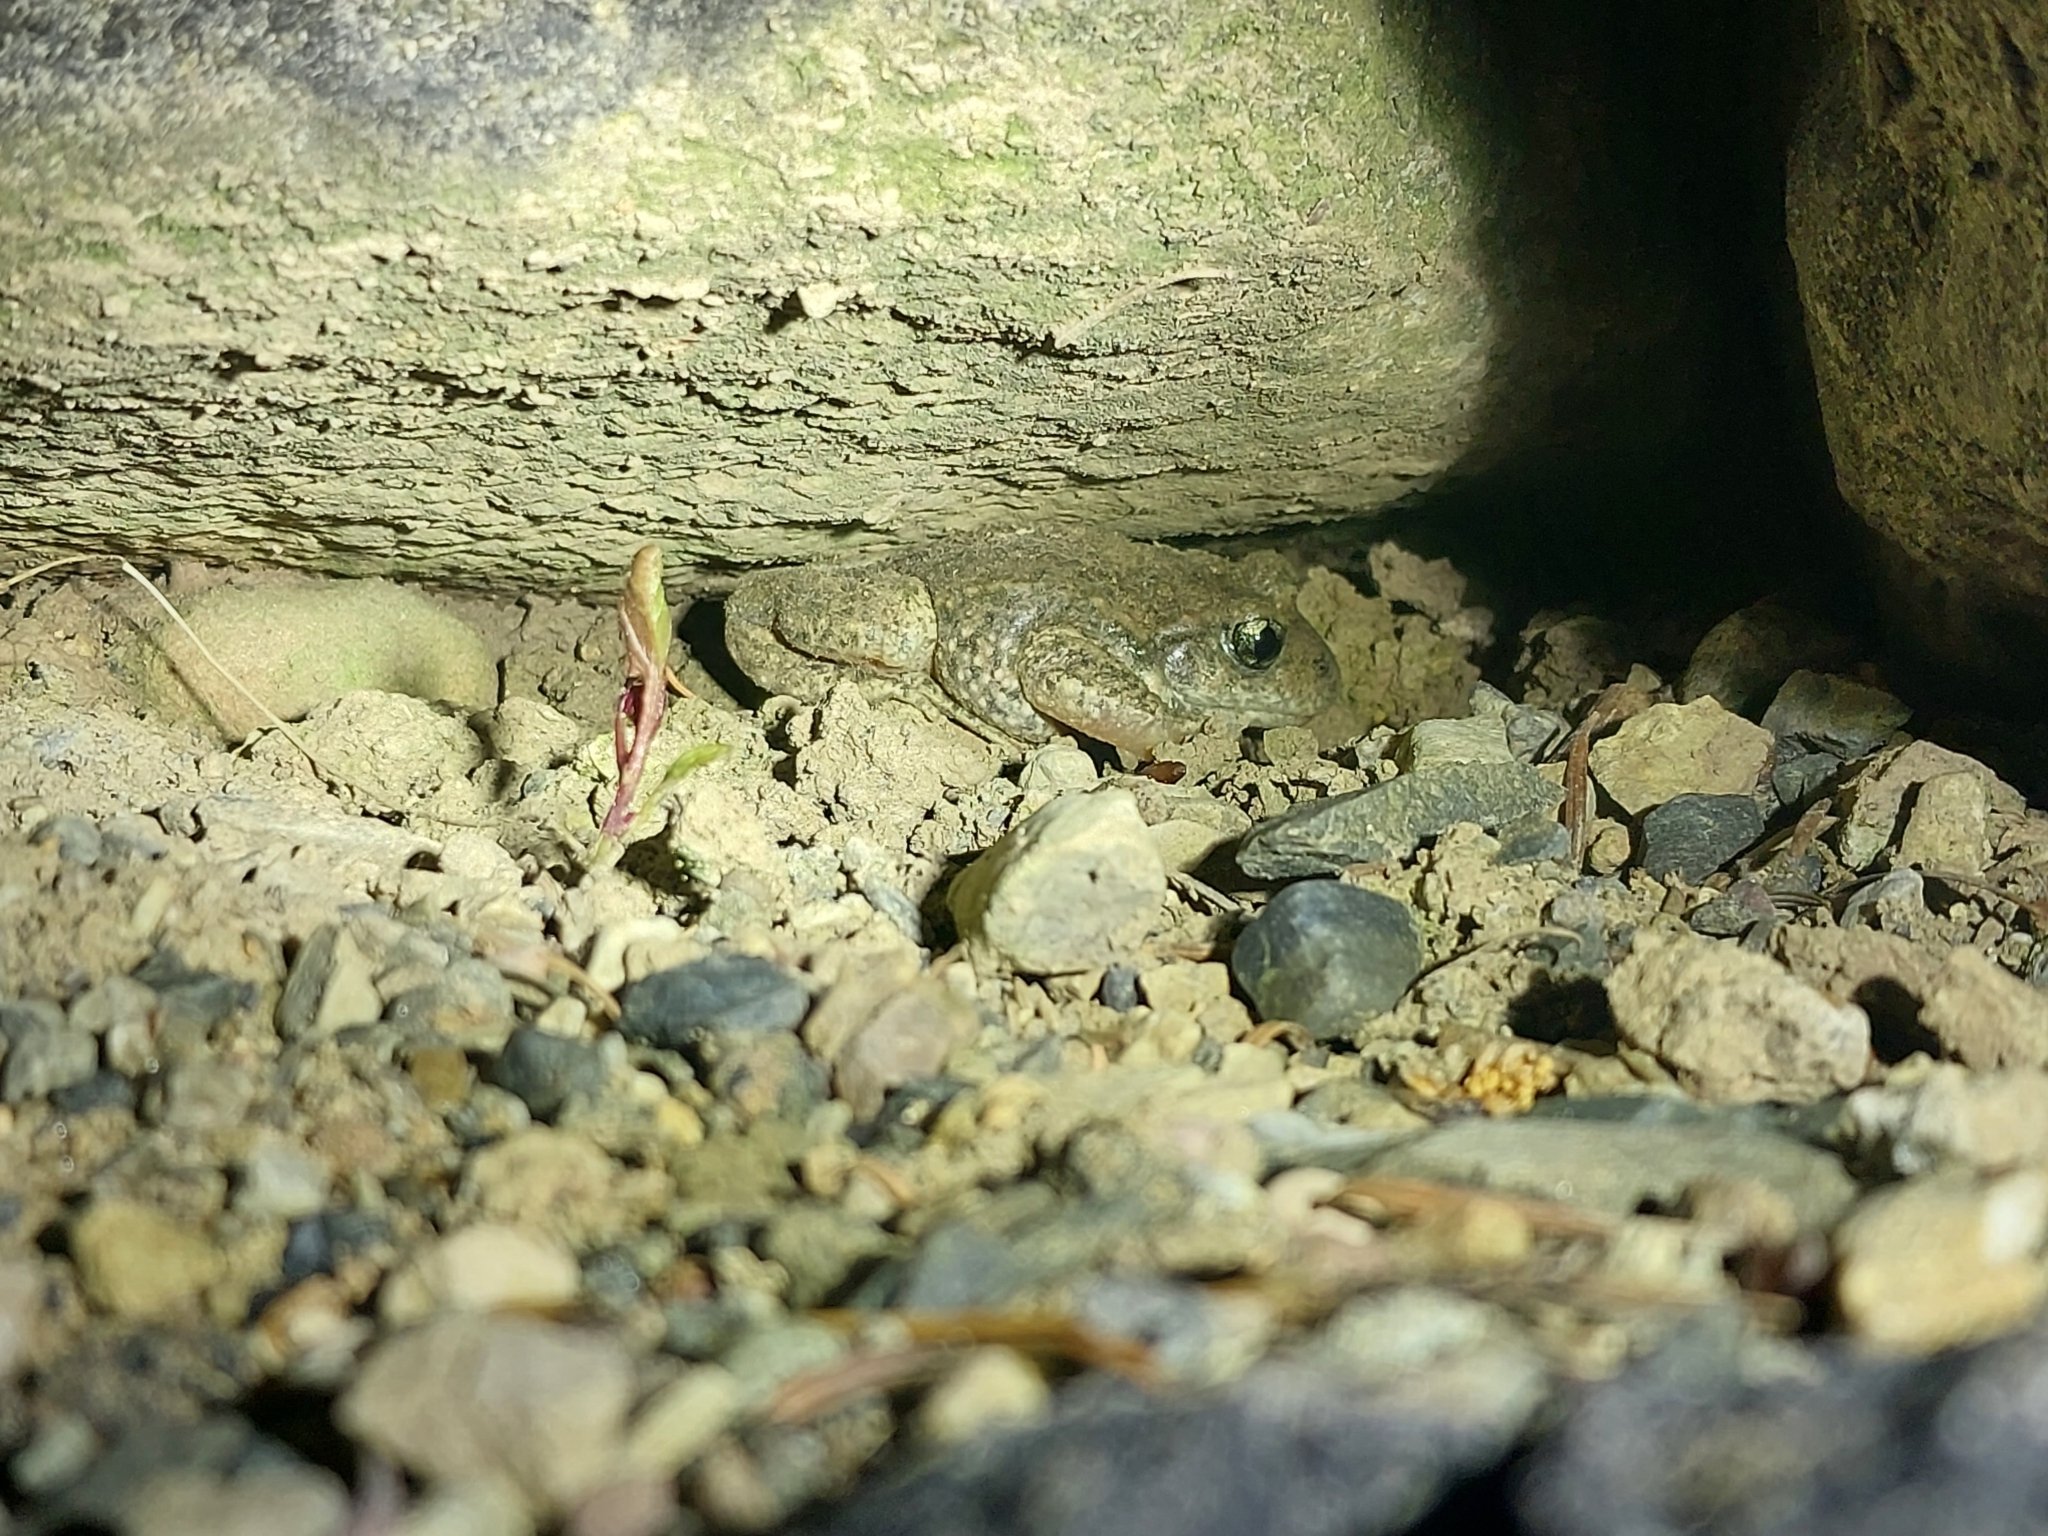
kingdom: Animalia
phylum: Chordata
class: Amphibia
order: Anura
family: Alytidae
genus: Alytes
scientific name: Alytes obstetricans
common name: Midwife toad
